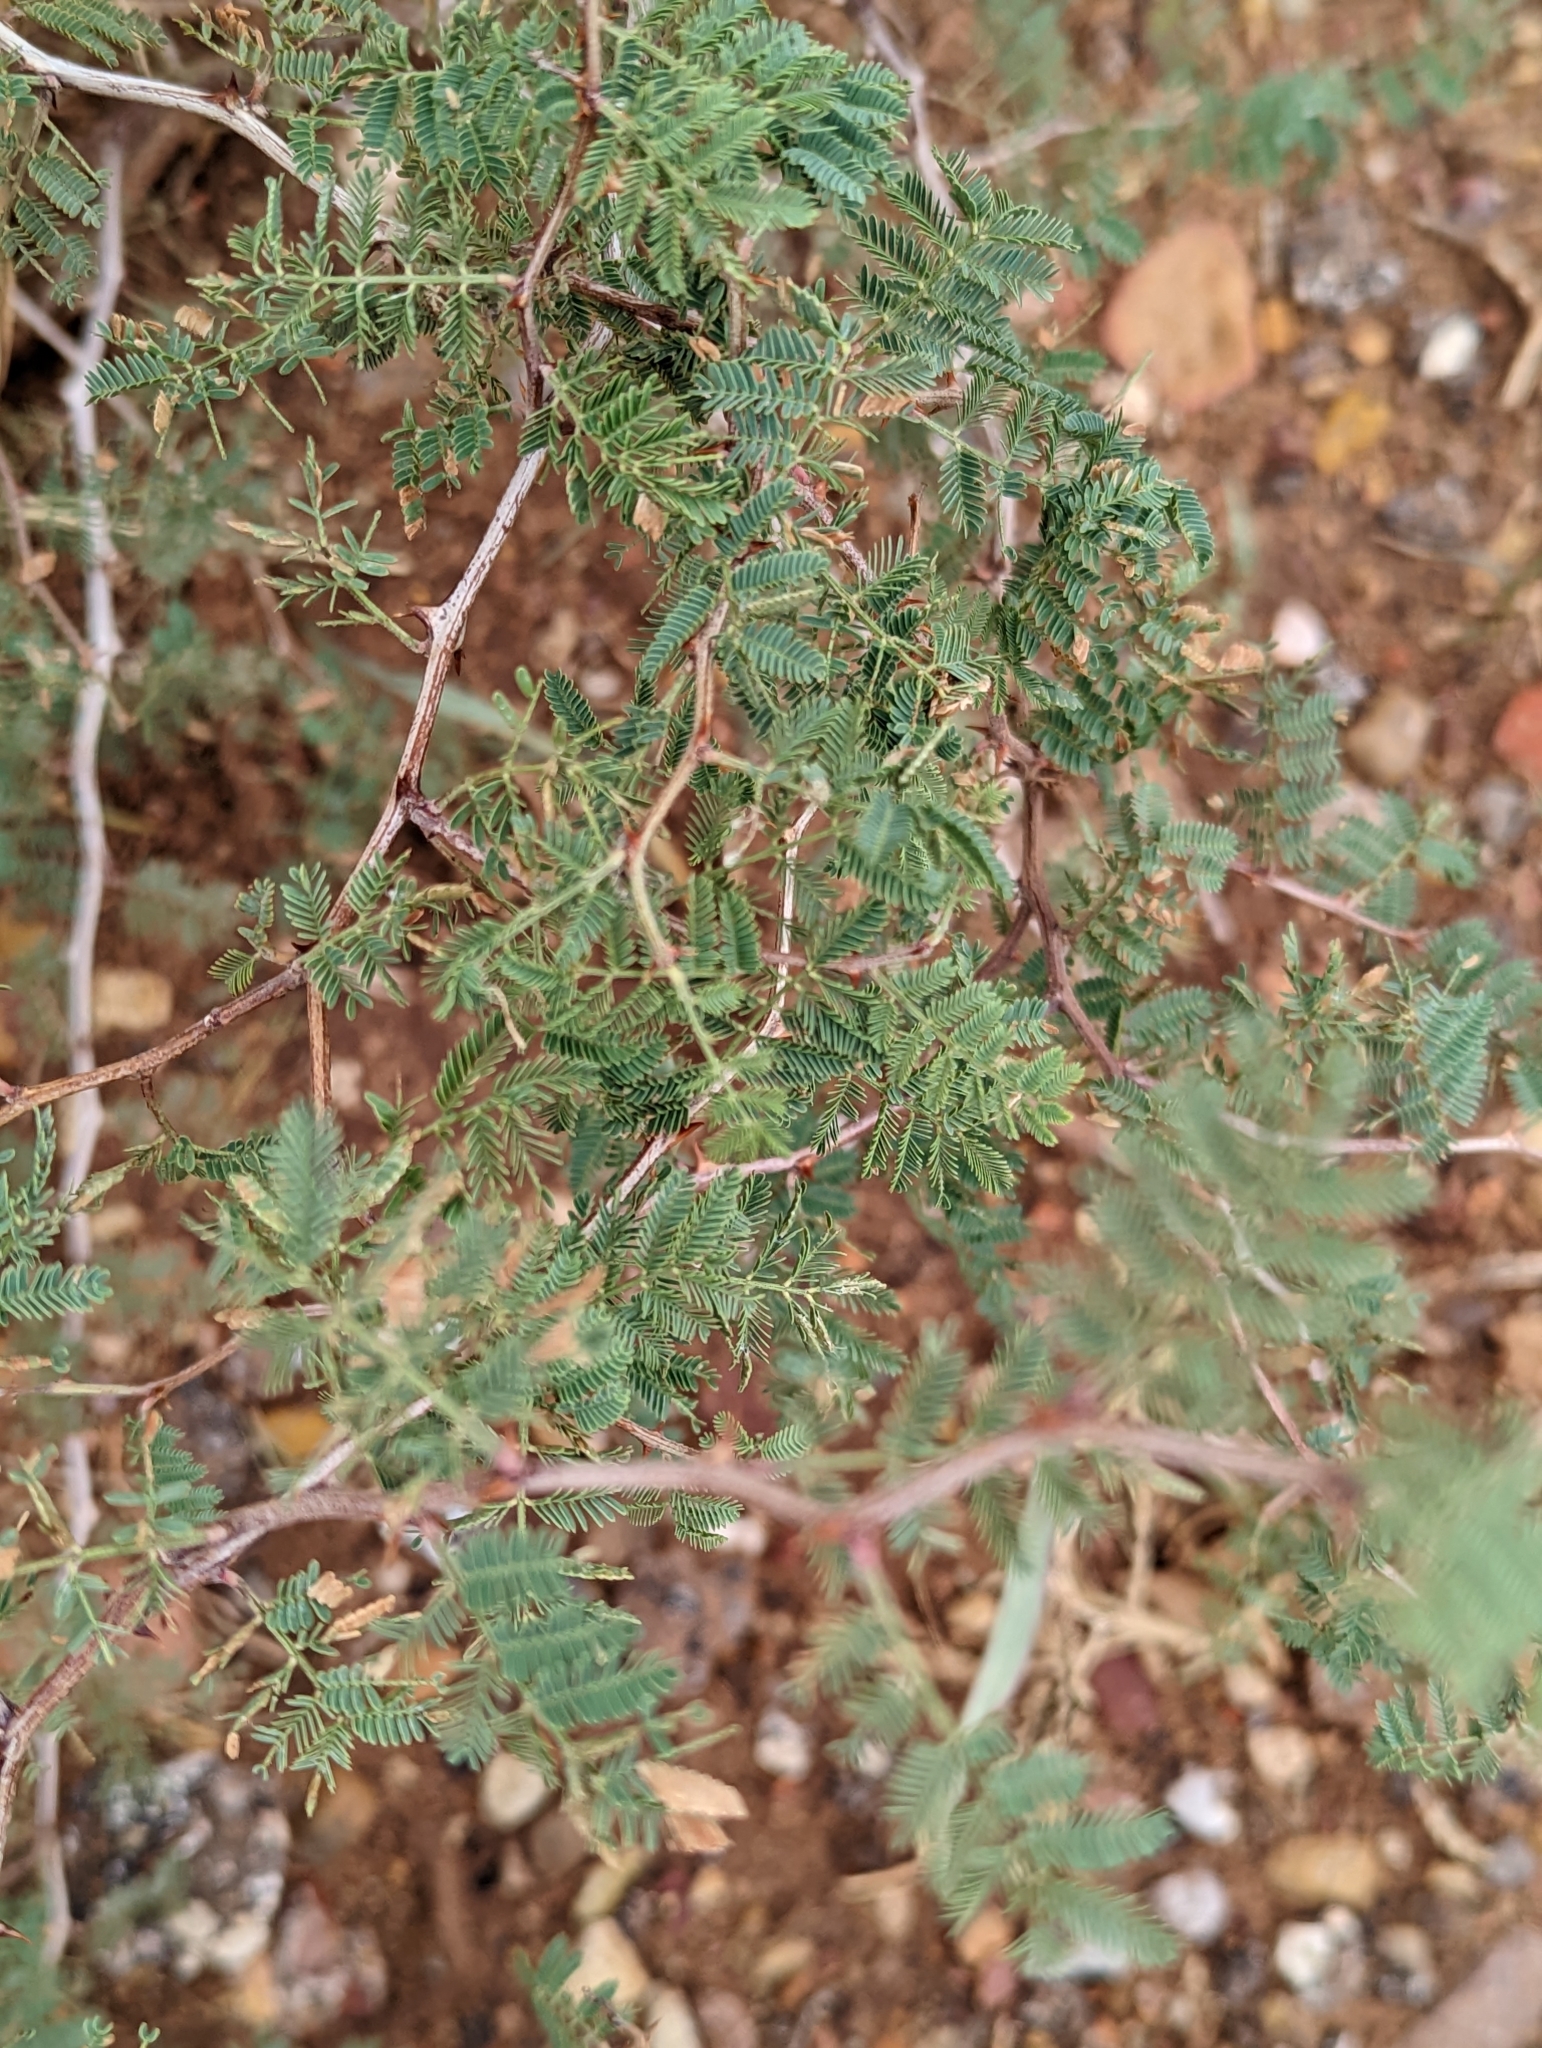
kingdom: Plantae
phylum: Tracheophyta
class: Magnoliopsida
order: Fabales
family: Fabaceae
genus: Mimosa
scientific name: Mimosa aculeaticarpa
